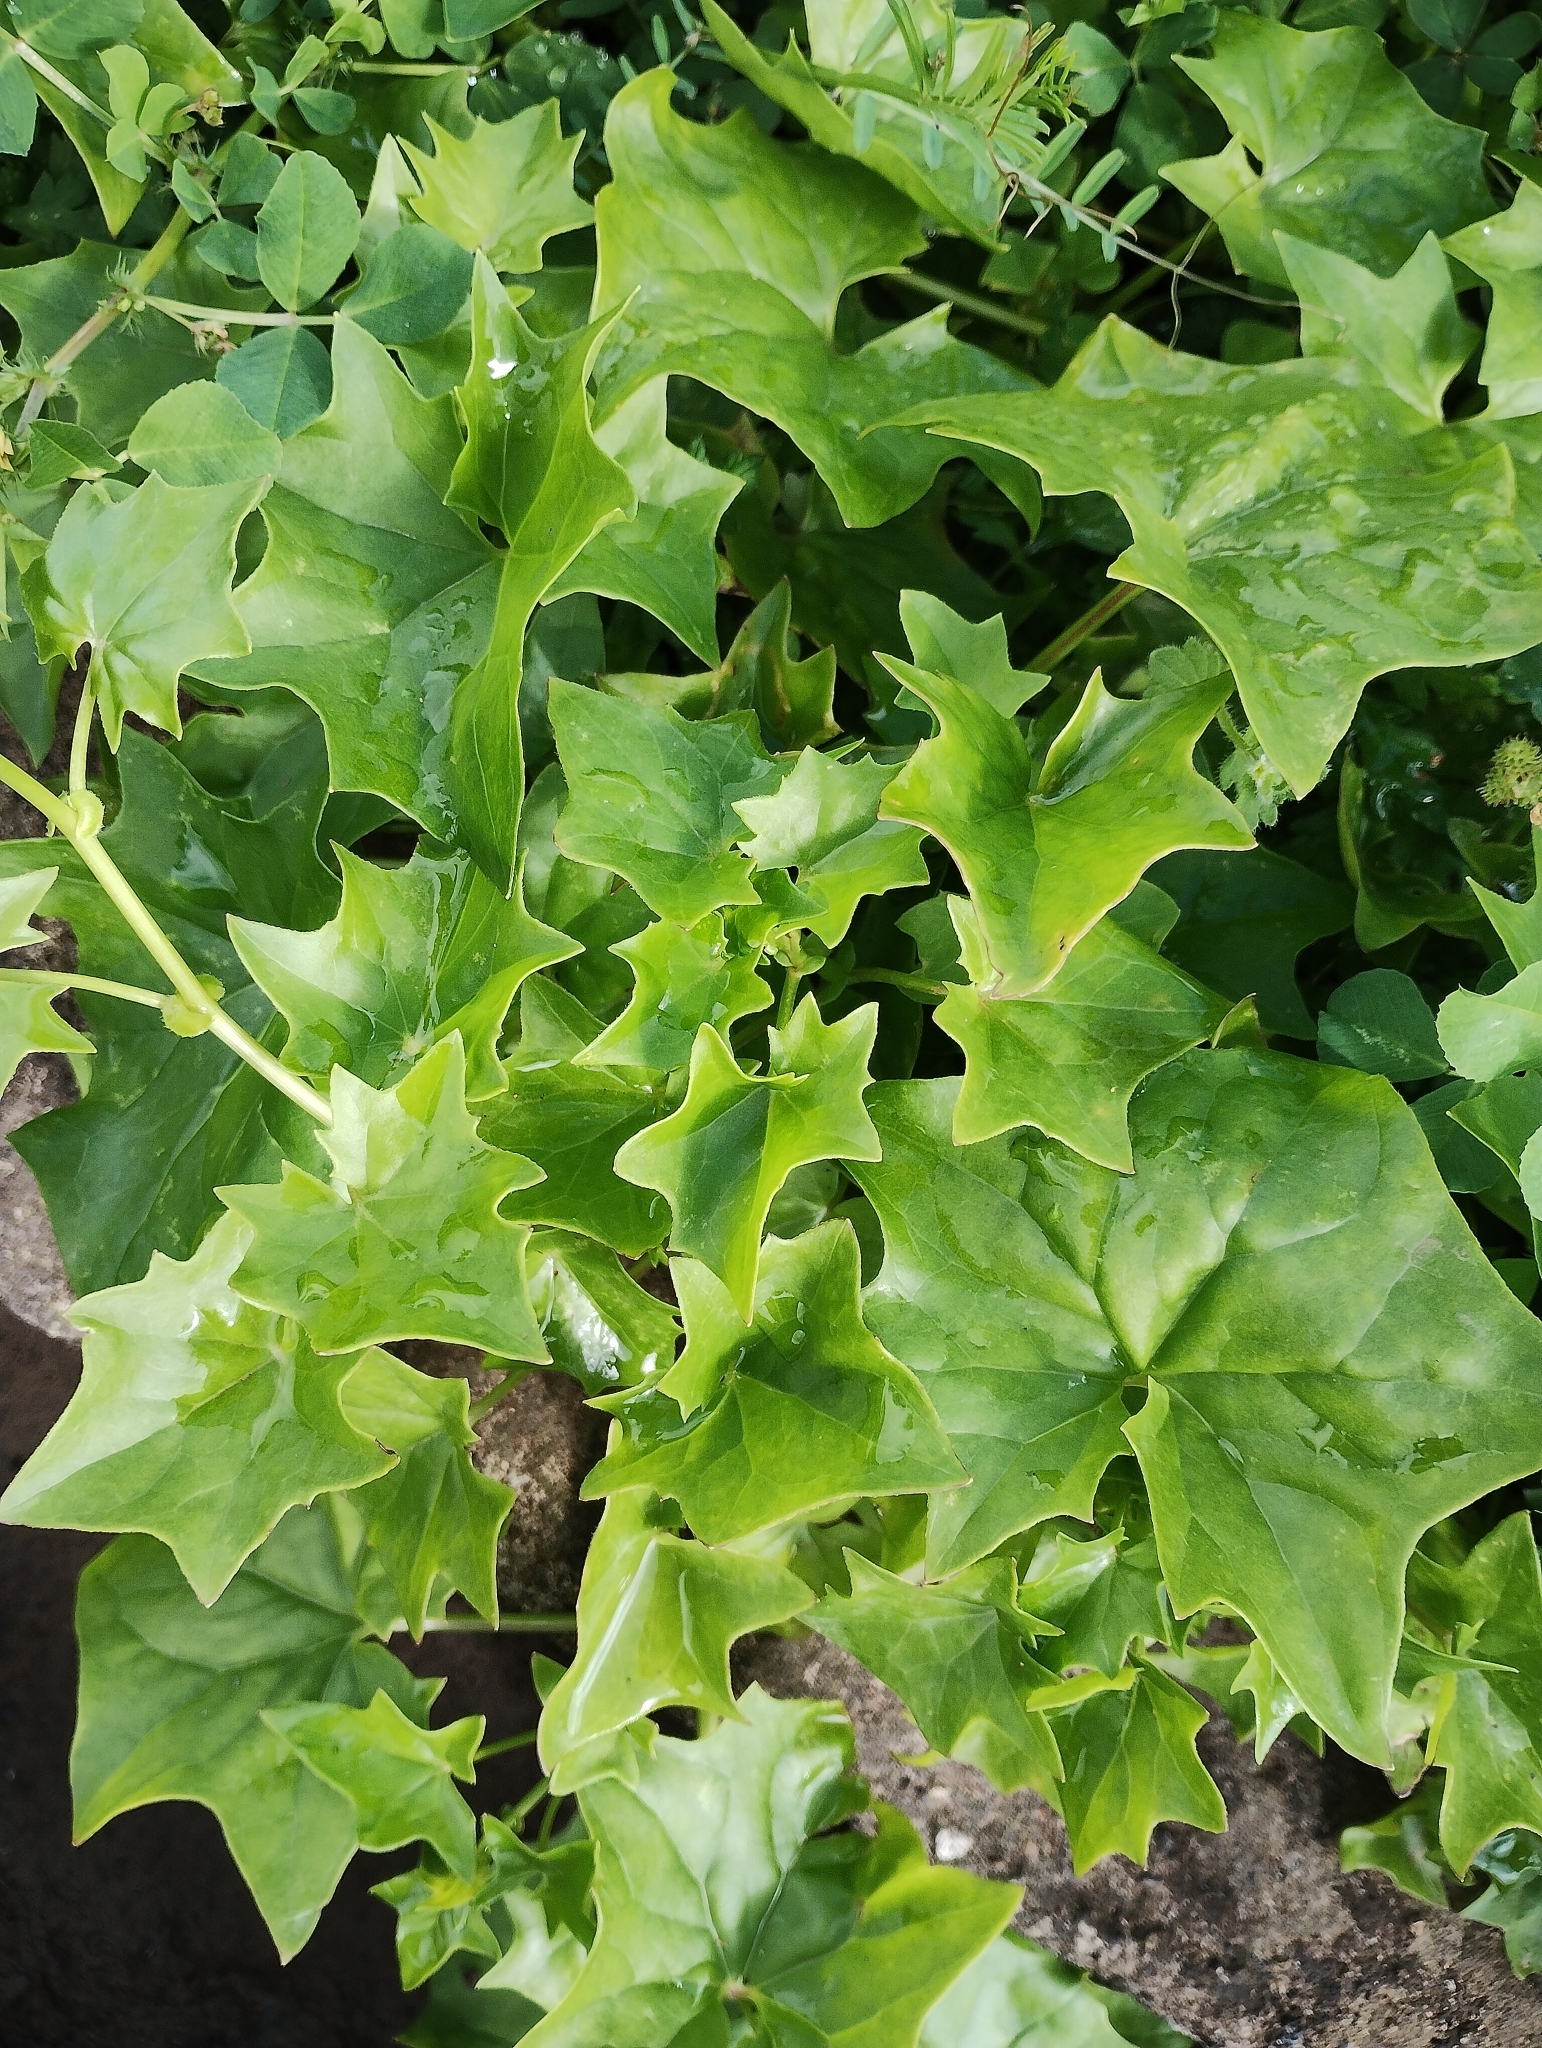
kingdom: Plantae
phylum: Tracheophyta
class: Magnoliopsida
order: Asterales
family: Asteraceae
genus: Delairea
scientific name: Delairea odorata
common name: Cape-ivy
